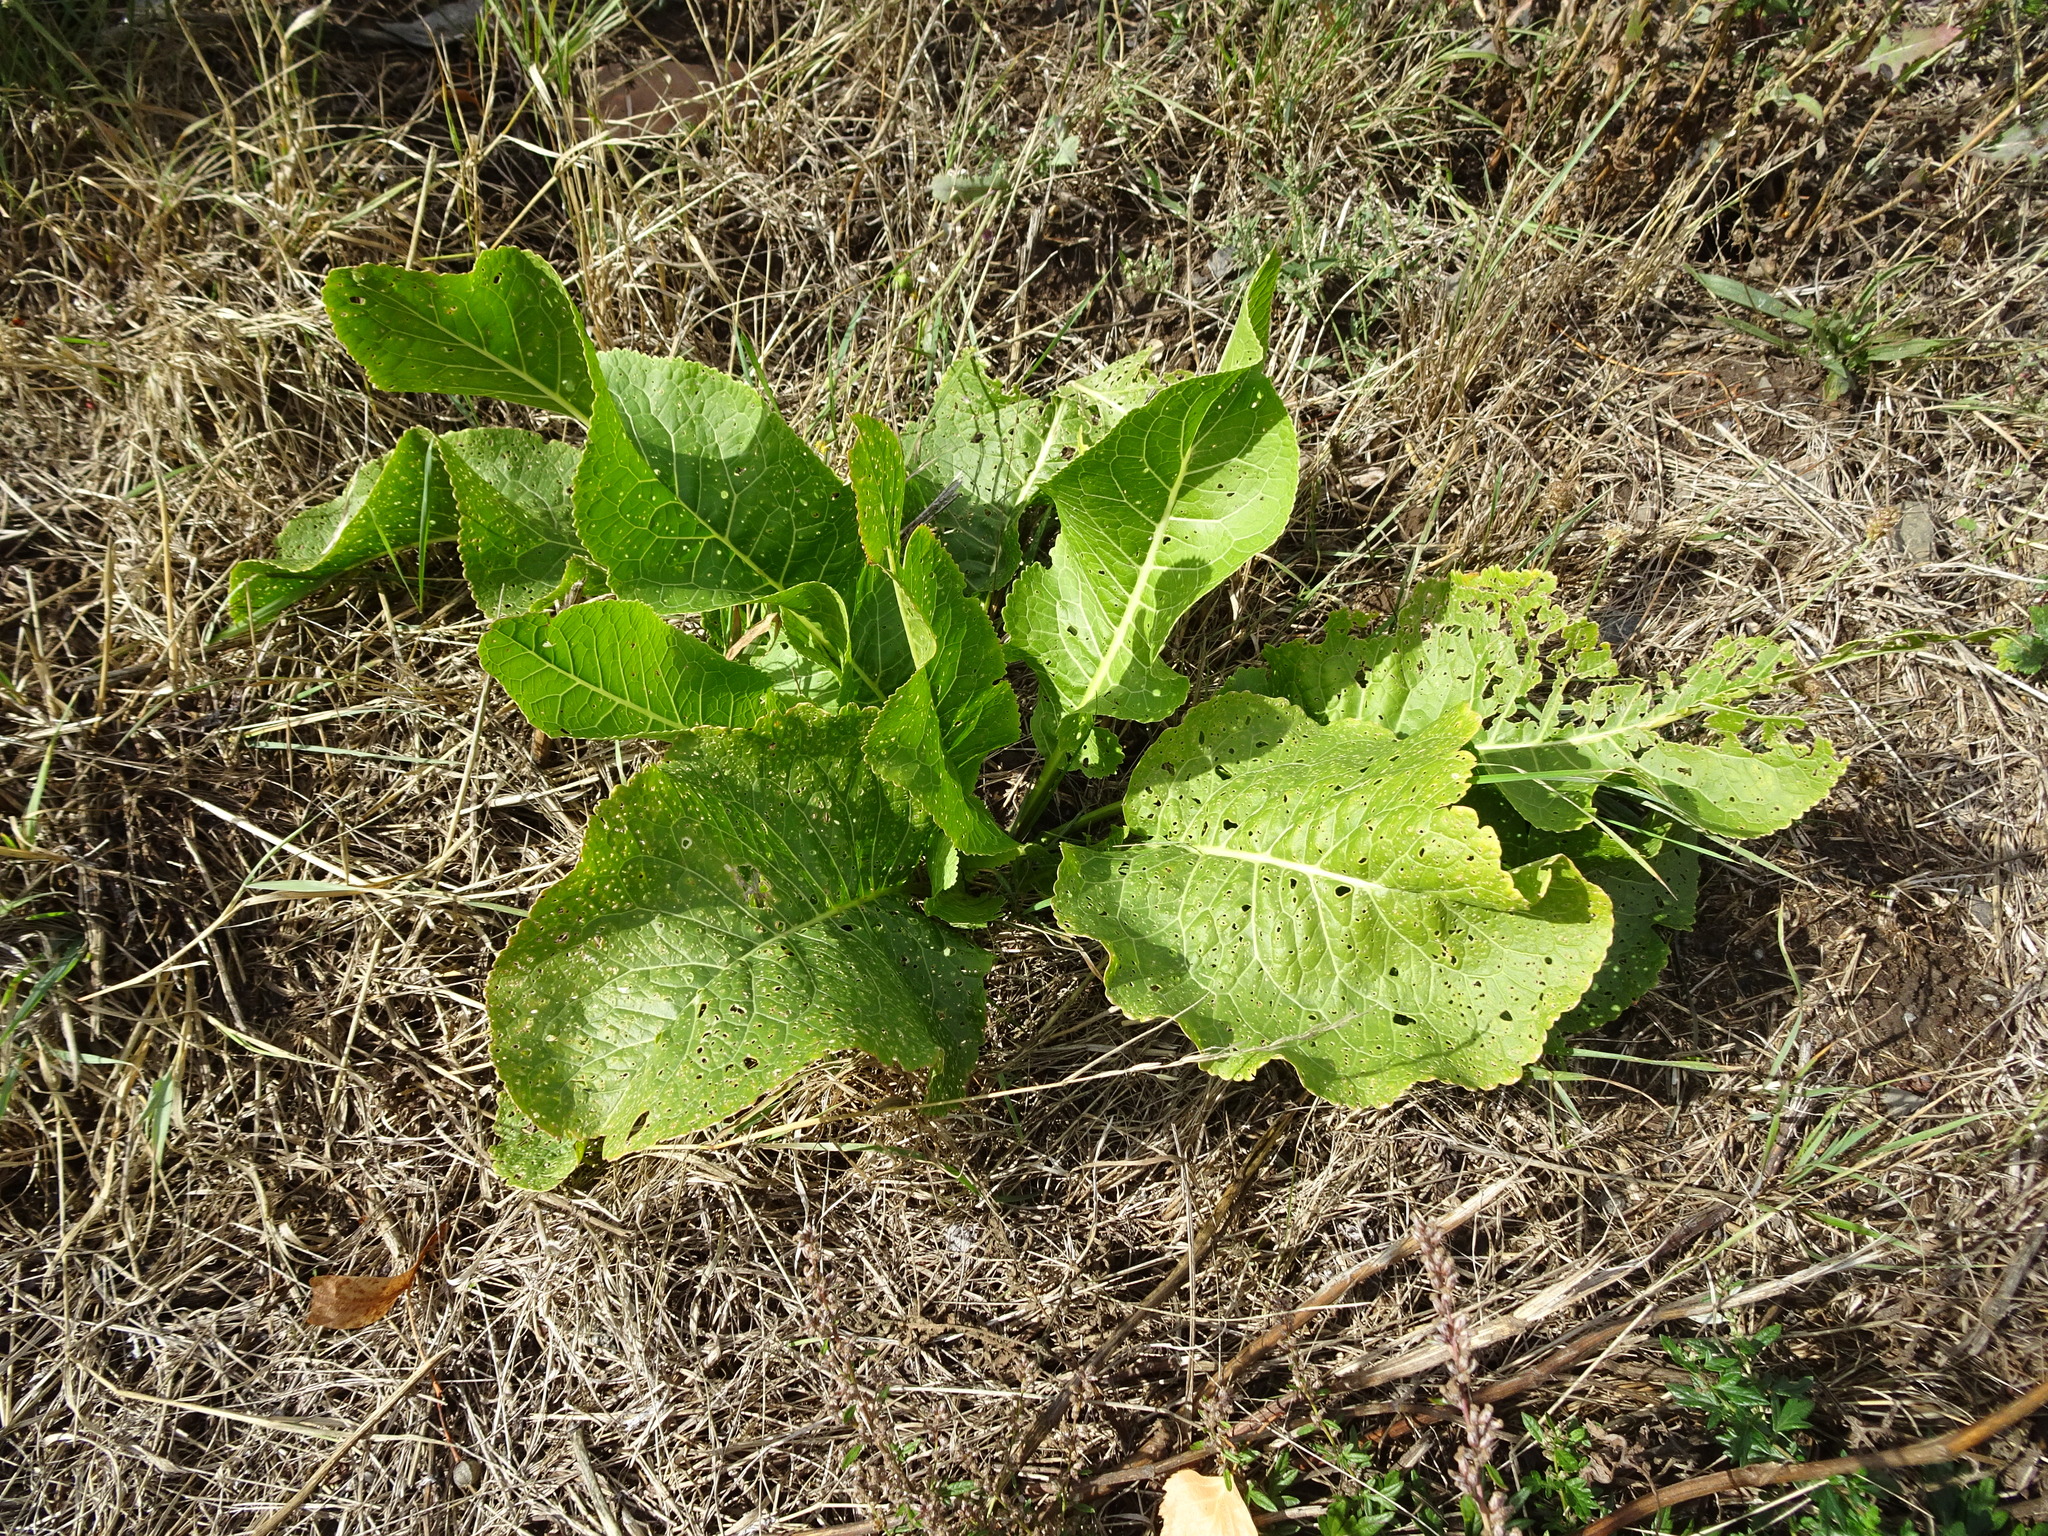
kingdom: Plantae
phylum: Tracheophyta
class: Magnoliopsida
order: Brassicales
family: Brassicaceae
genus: Armoracia
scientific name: Armoracia rusticana
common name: Horseradish
